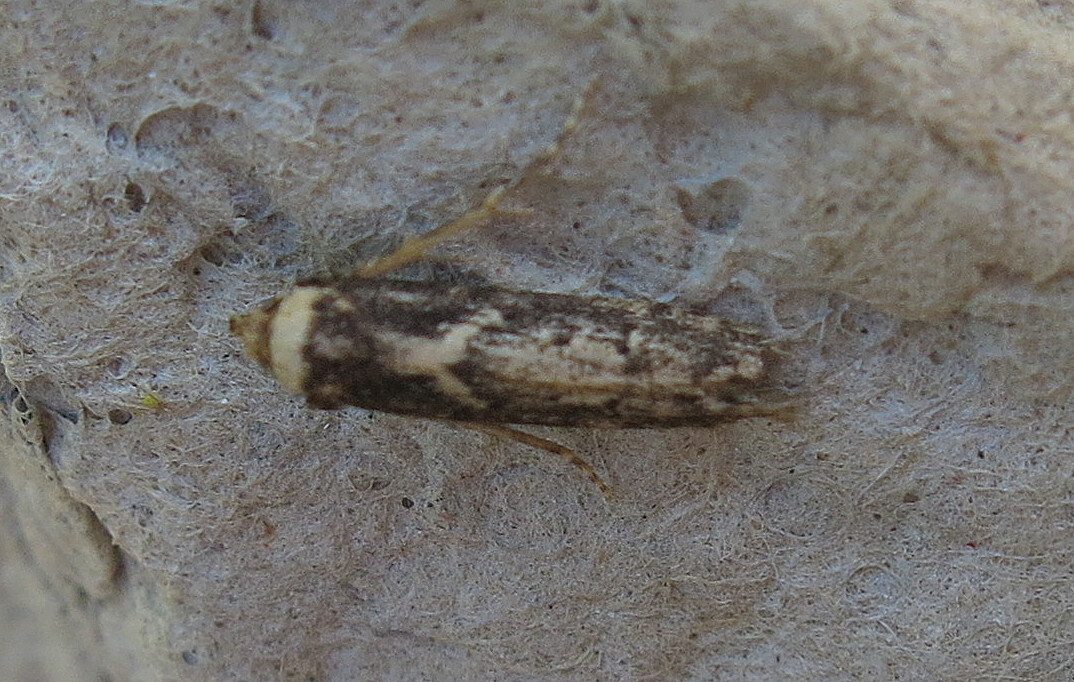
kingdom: Animalia
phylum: Arthropoda
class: Insecta
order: Lepidoptera
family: Blastobasidae
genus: Blastobasis
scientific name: Blastobasis adustella
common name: Dingy dowd
